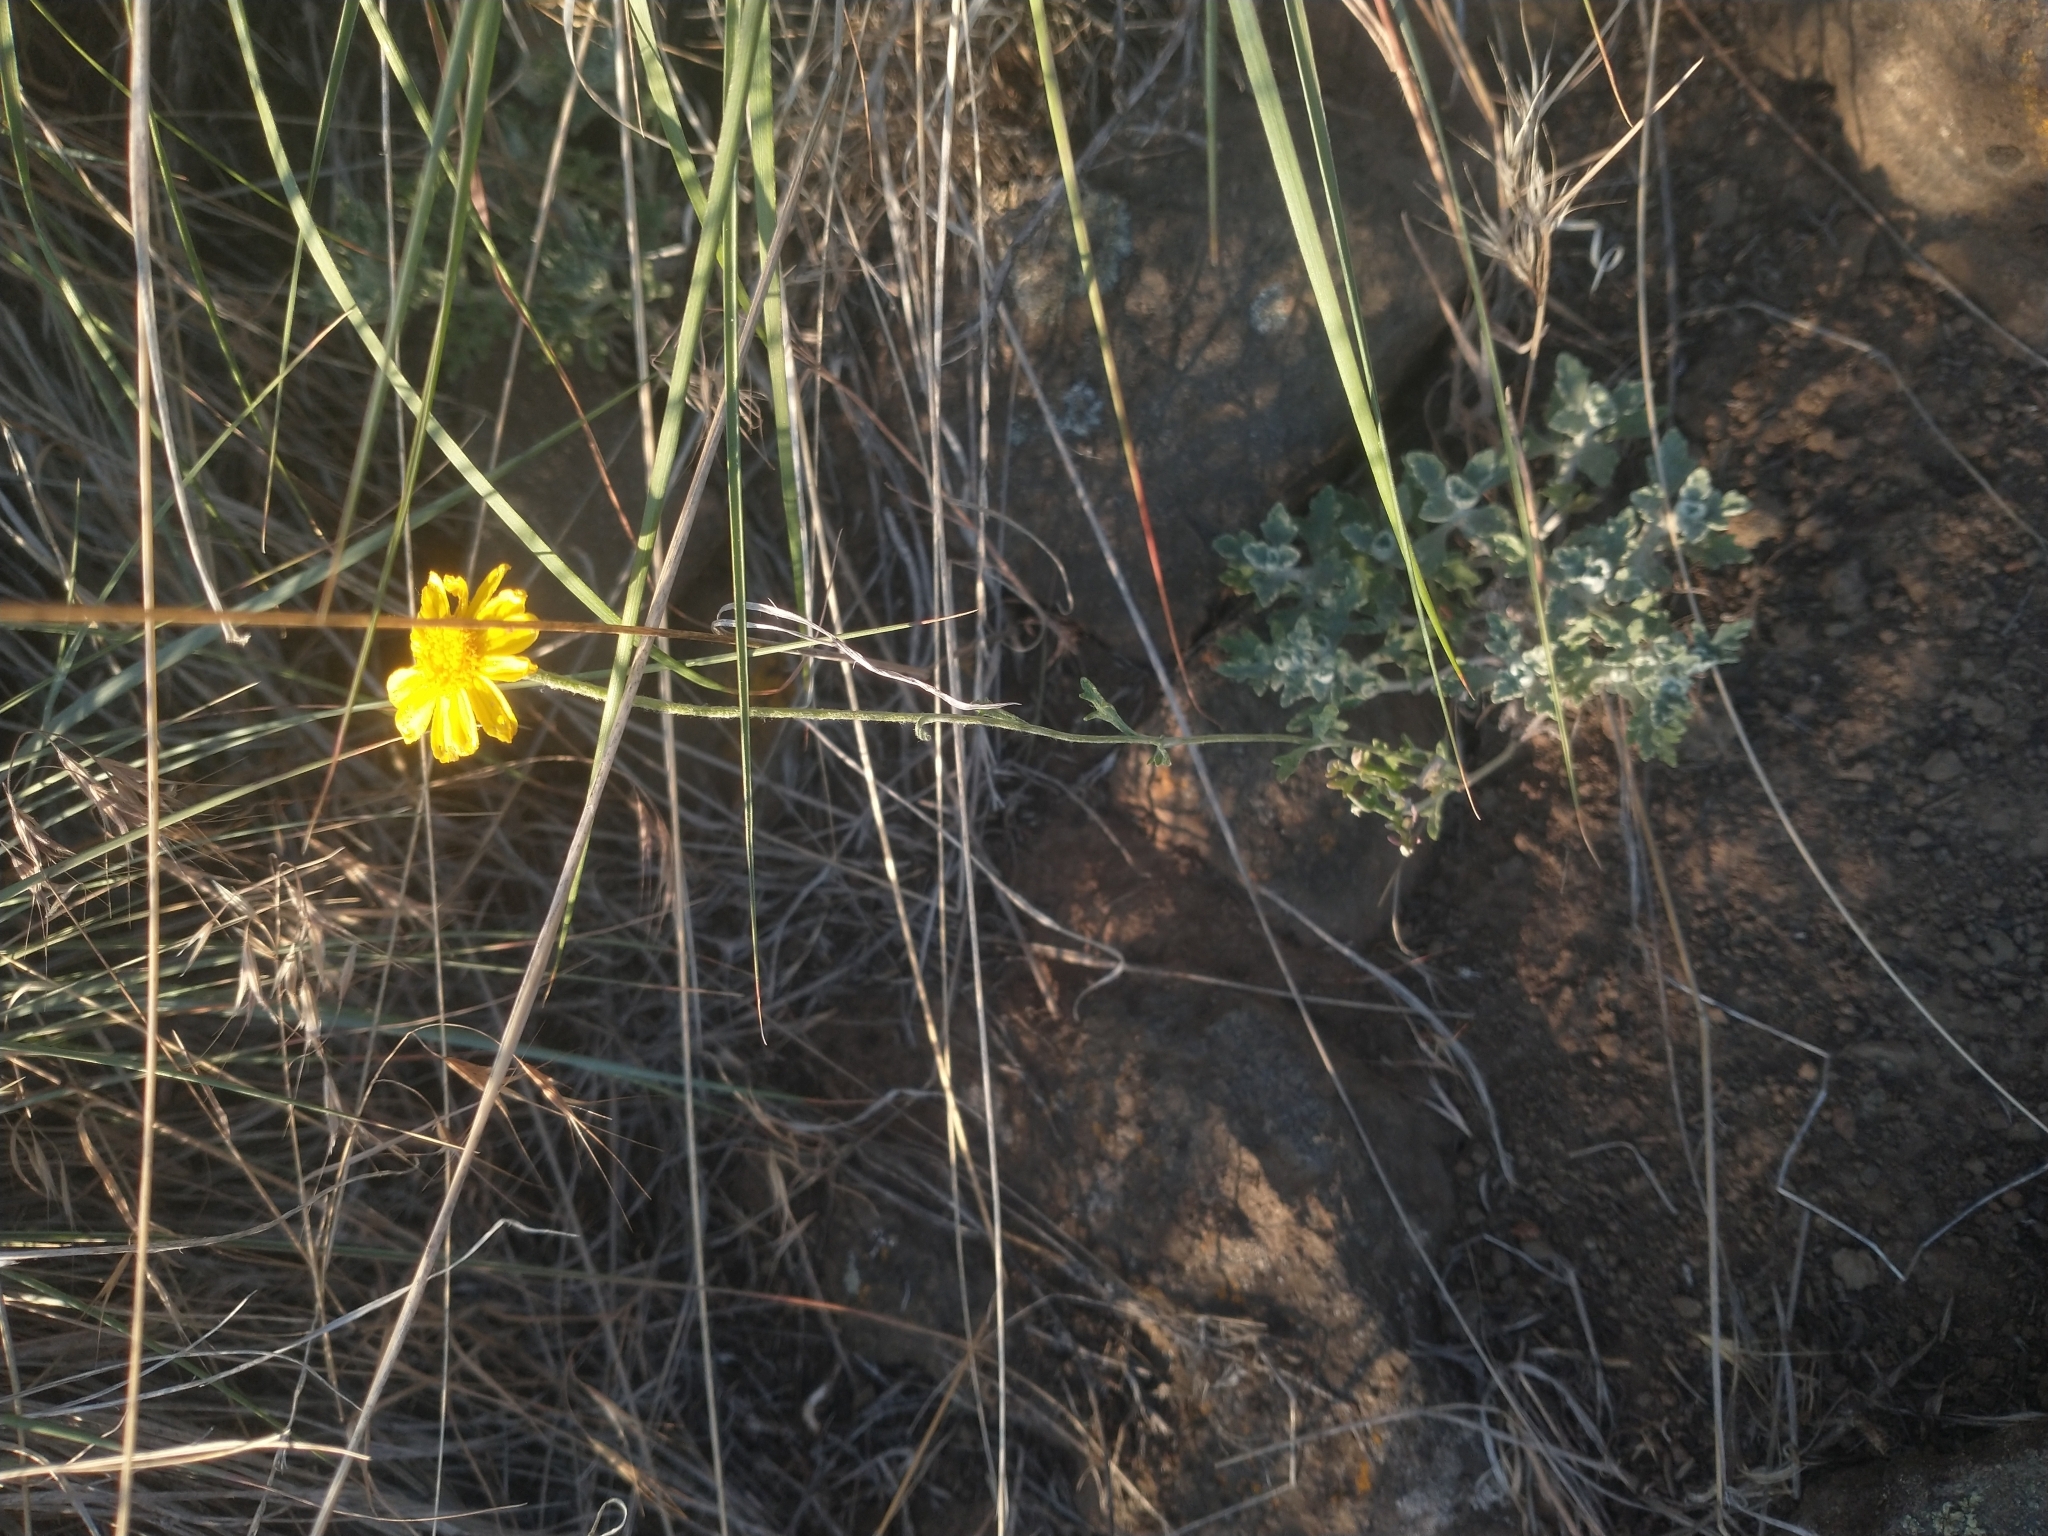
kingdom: Plantae
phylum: Tracheophyta
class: Magnoliopsida
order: Asterales
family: Asteraceae
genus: Eriophyllum
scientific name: Eriophyllum lanatum
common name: Common woolly-sunflower
